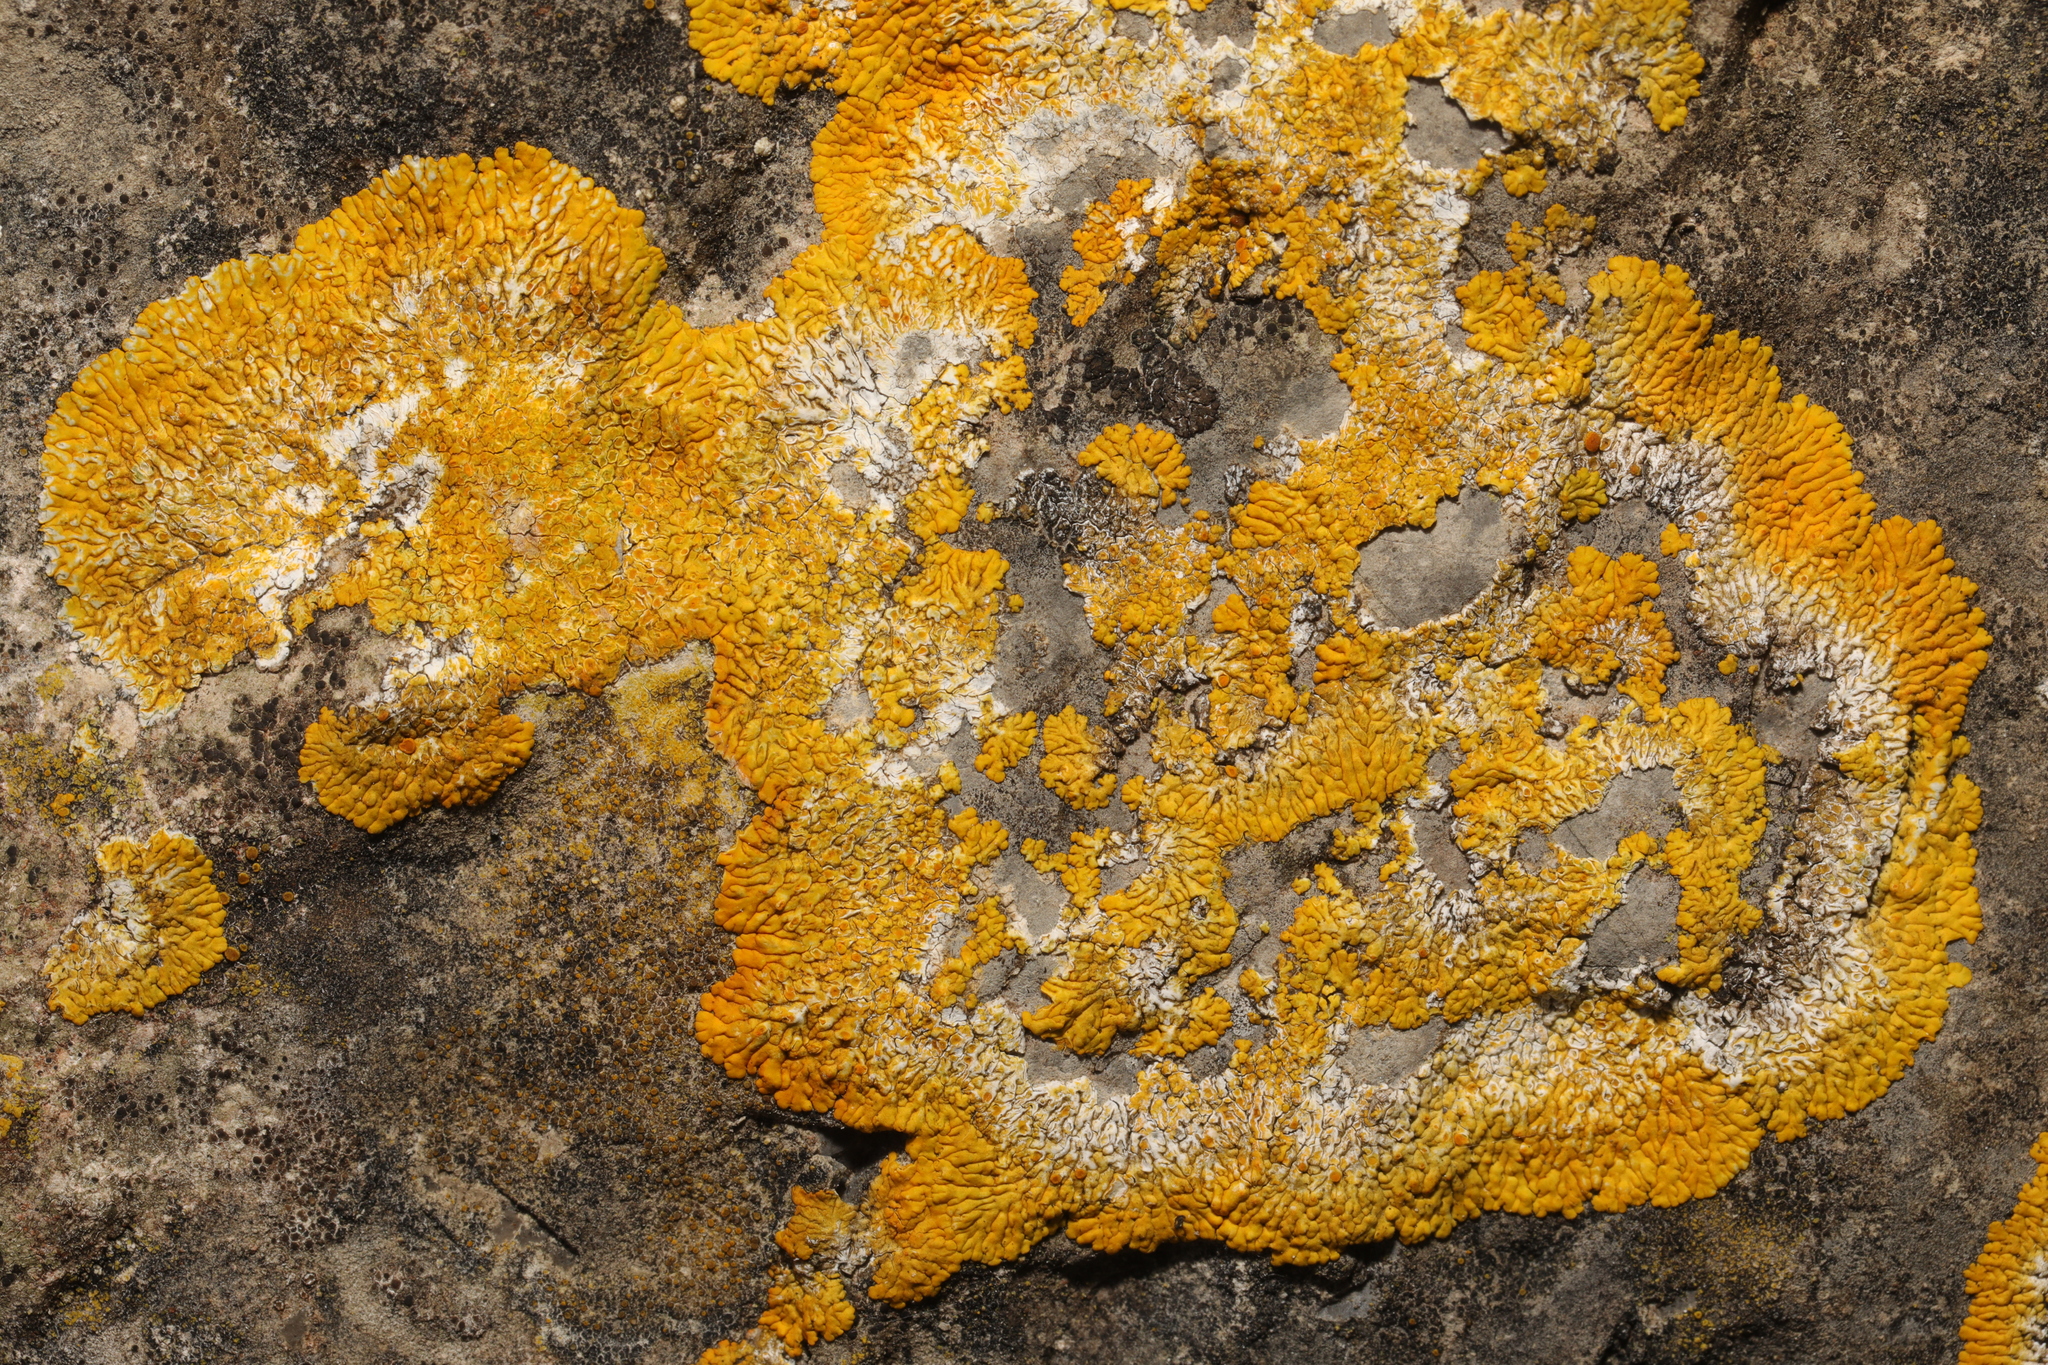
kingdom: Fungi
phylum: Ascomycota
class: Lecanoromycetes
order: Teloschistales
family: Teloschistaceae
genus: Variospora
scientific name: Variospora flavescens
